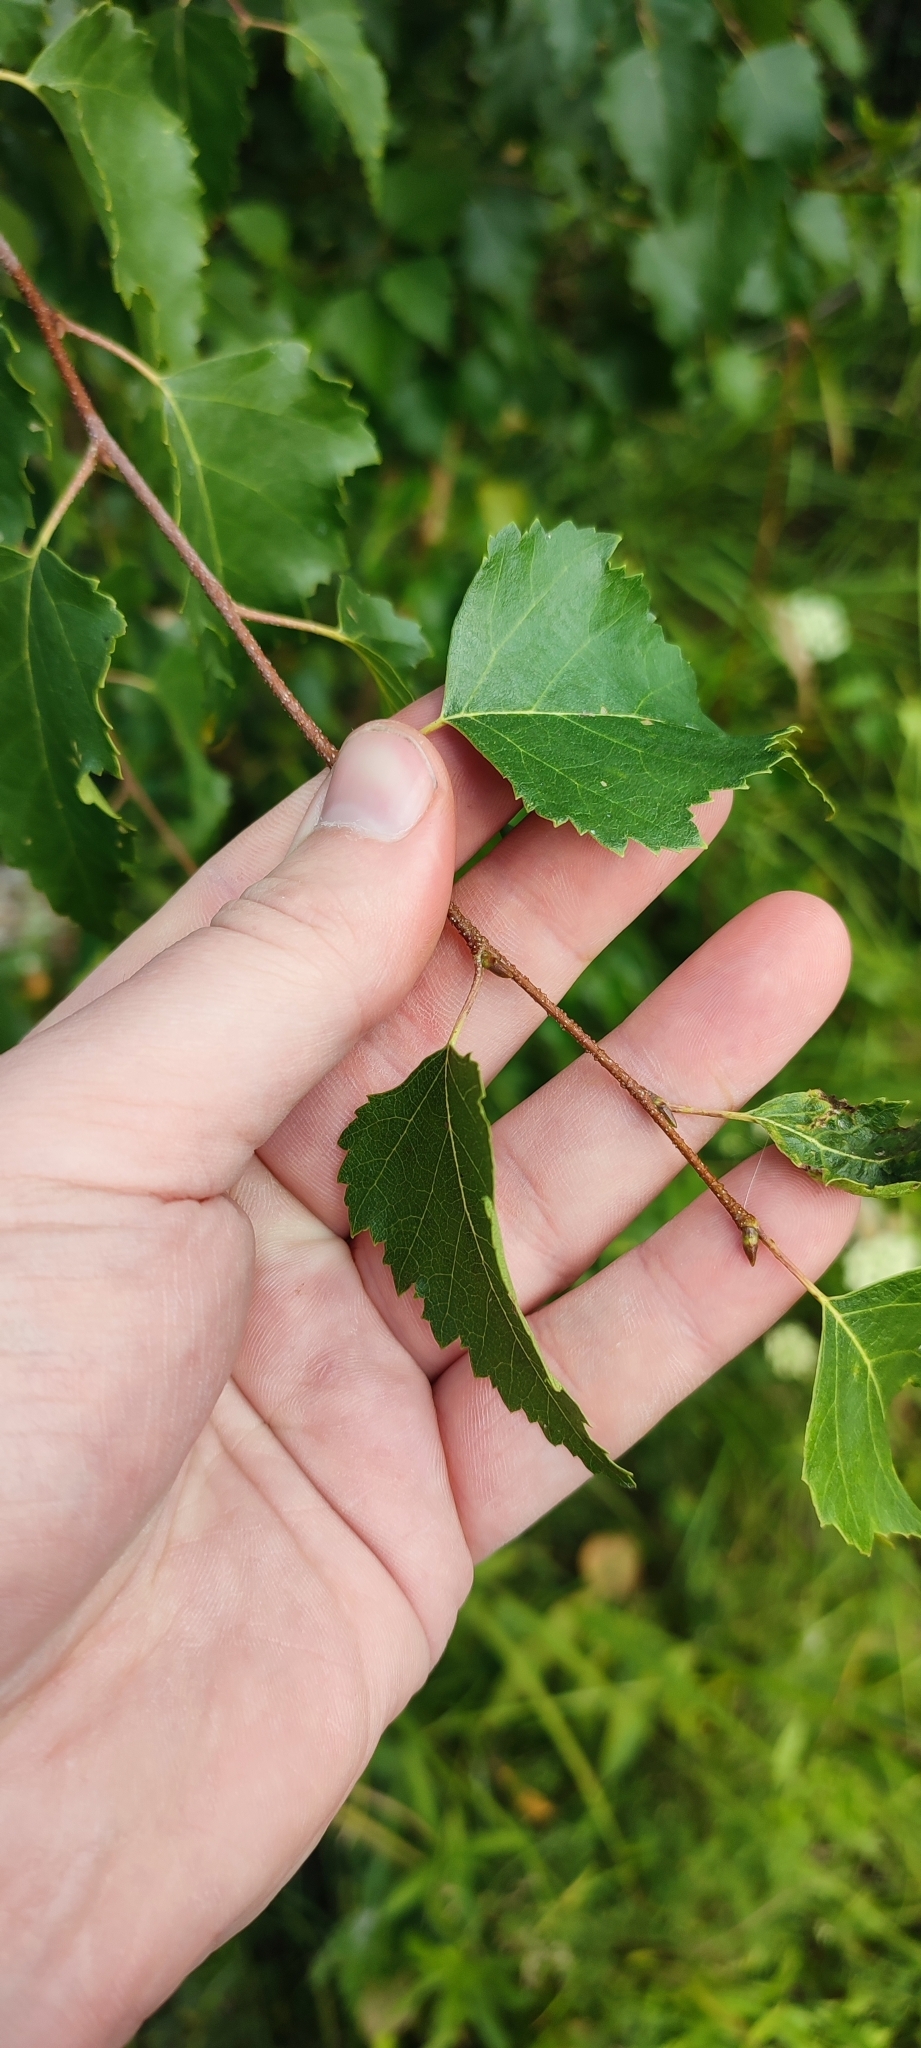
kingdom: Plantae
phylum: Tracheophyta
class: Magnoliopsida
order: Fagales
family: Betulaceae
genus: Betula
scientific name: Betula pendula
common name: Silver birch
